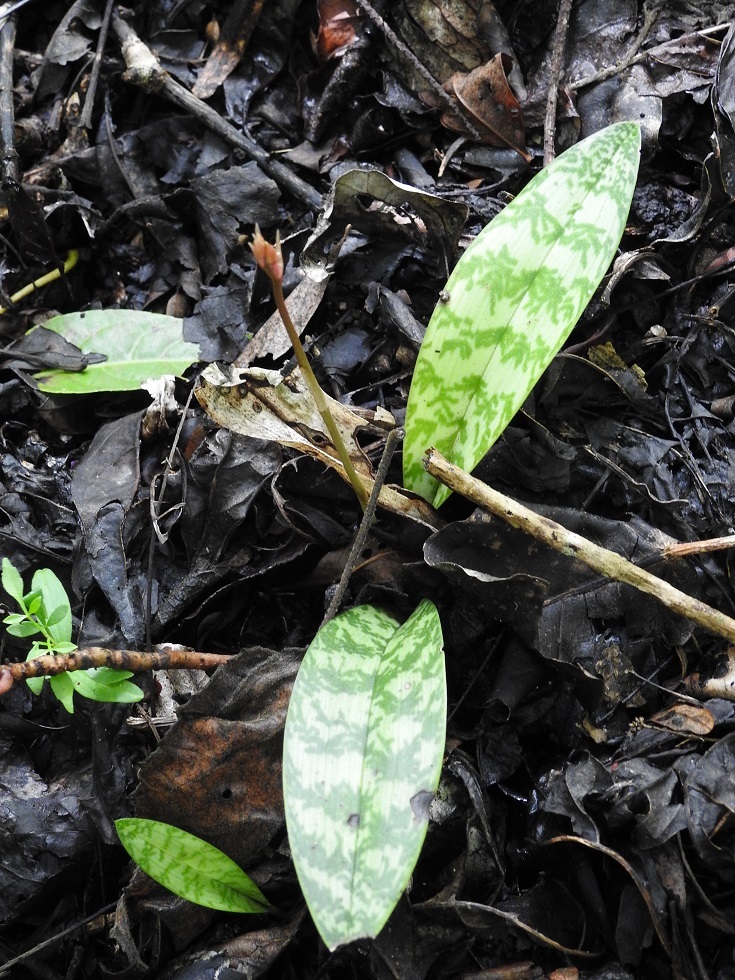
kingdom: Plantae
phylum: Tracheophyta
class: Liliopsida
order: Asparagales
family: Orchidaceae
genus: Eulophia
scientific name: Eulophia maculata
